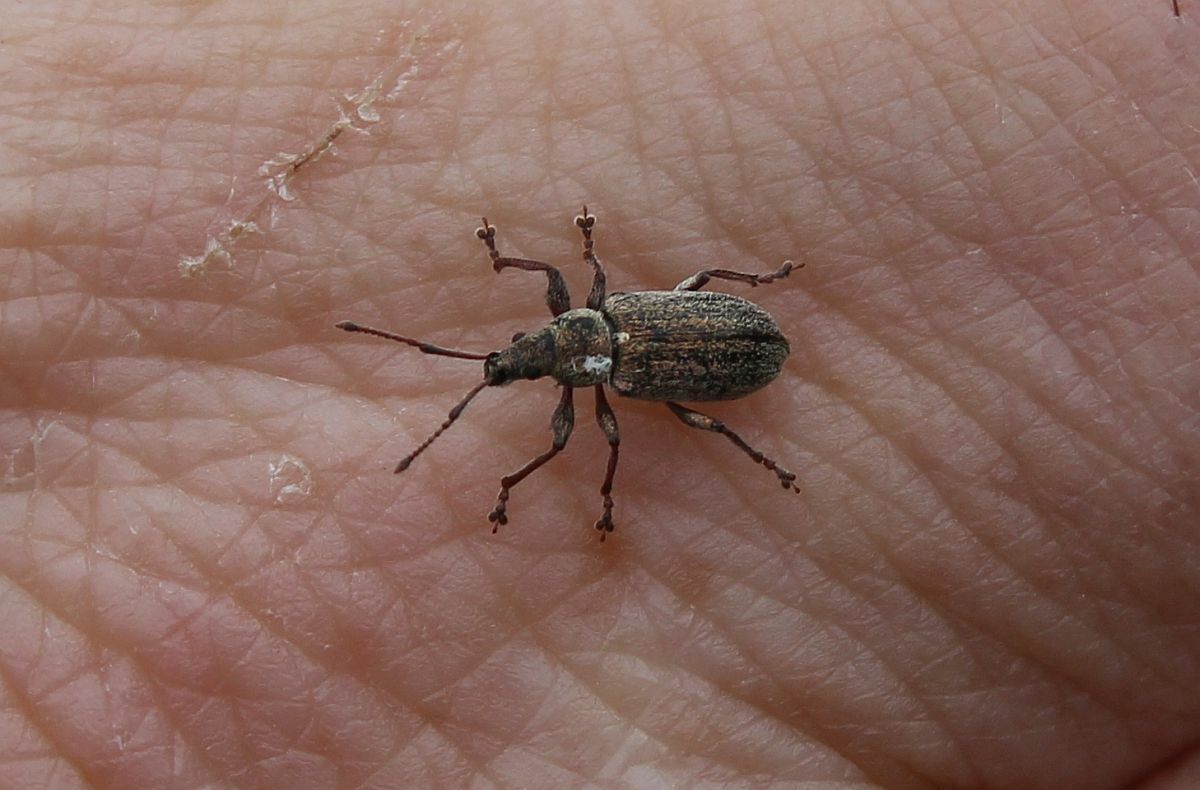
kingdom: Animalia
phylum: Arthropoda
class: Insecta
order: Coleoptera
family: Curculionidae
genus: Phyllobius
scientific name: Phyllobius pyri
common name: Common leaf weevil
